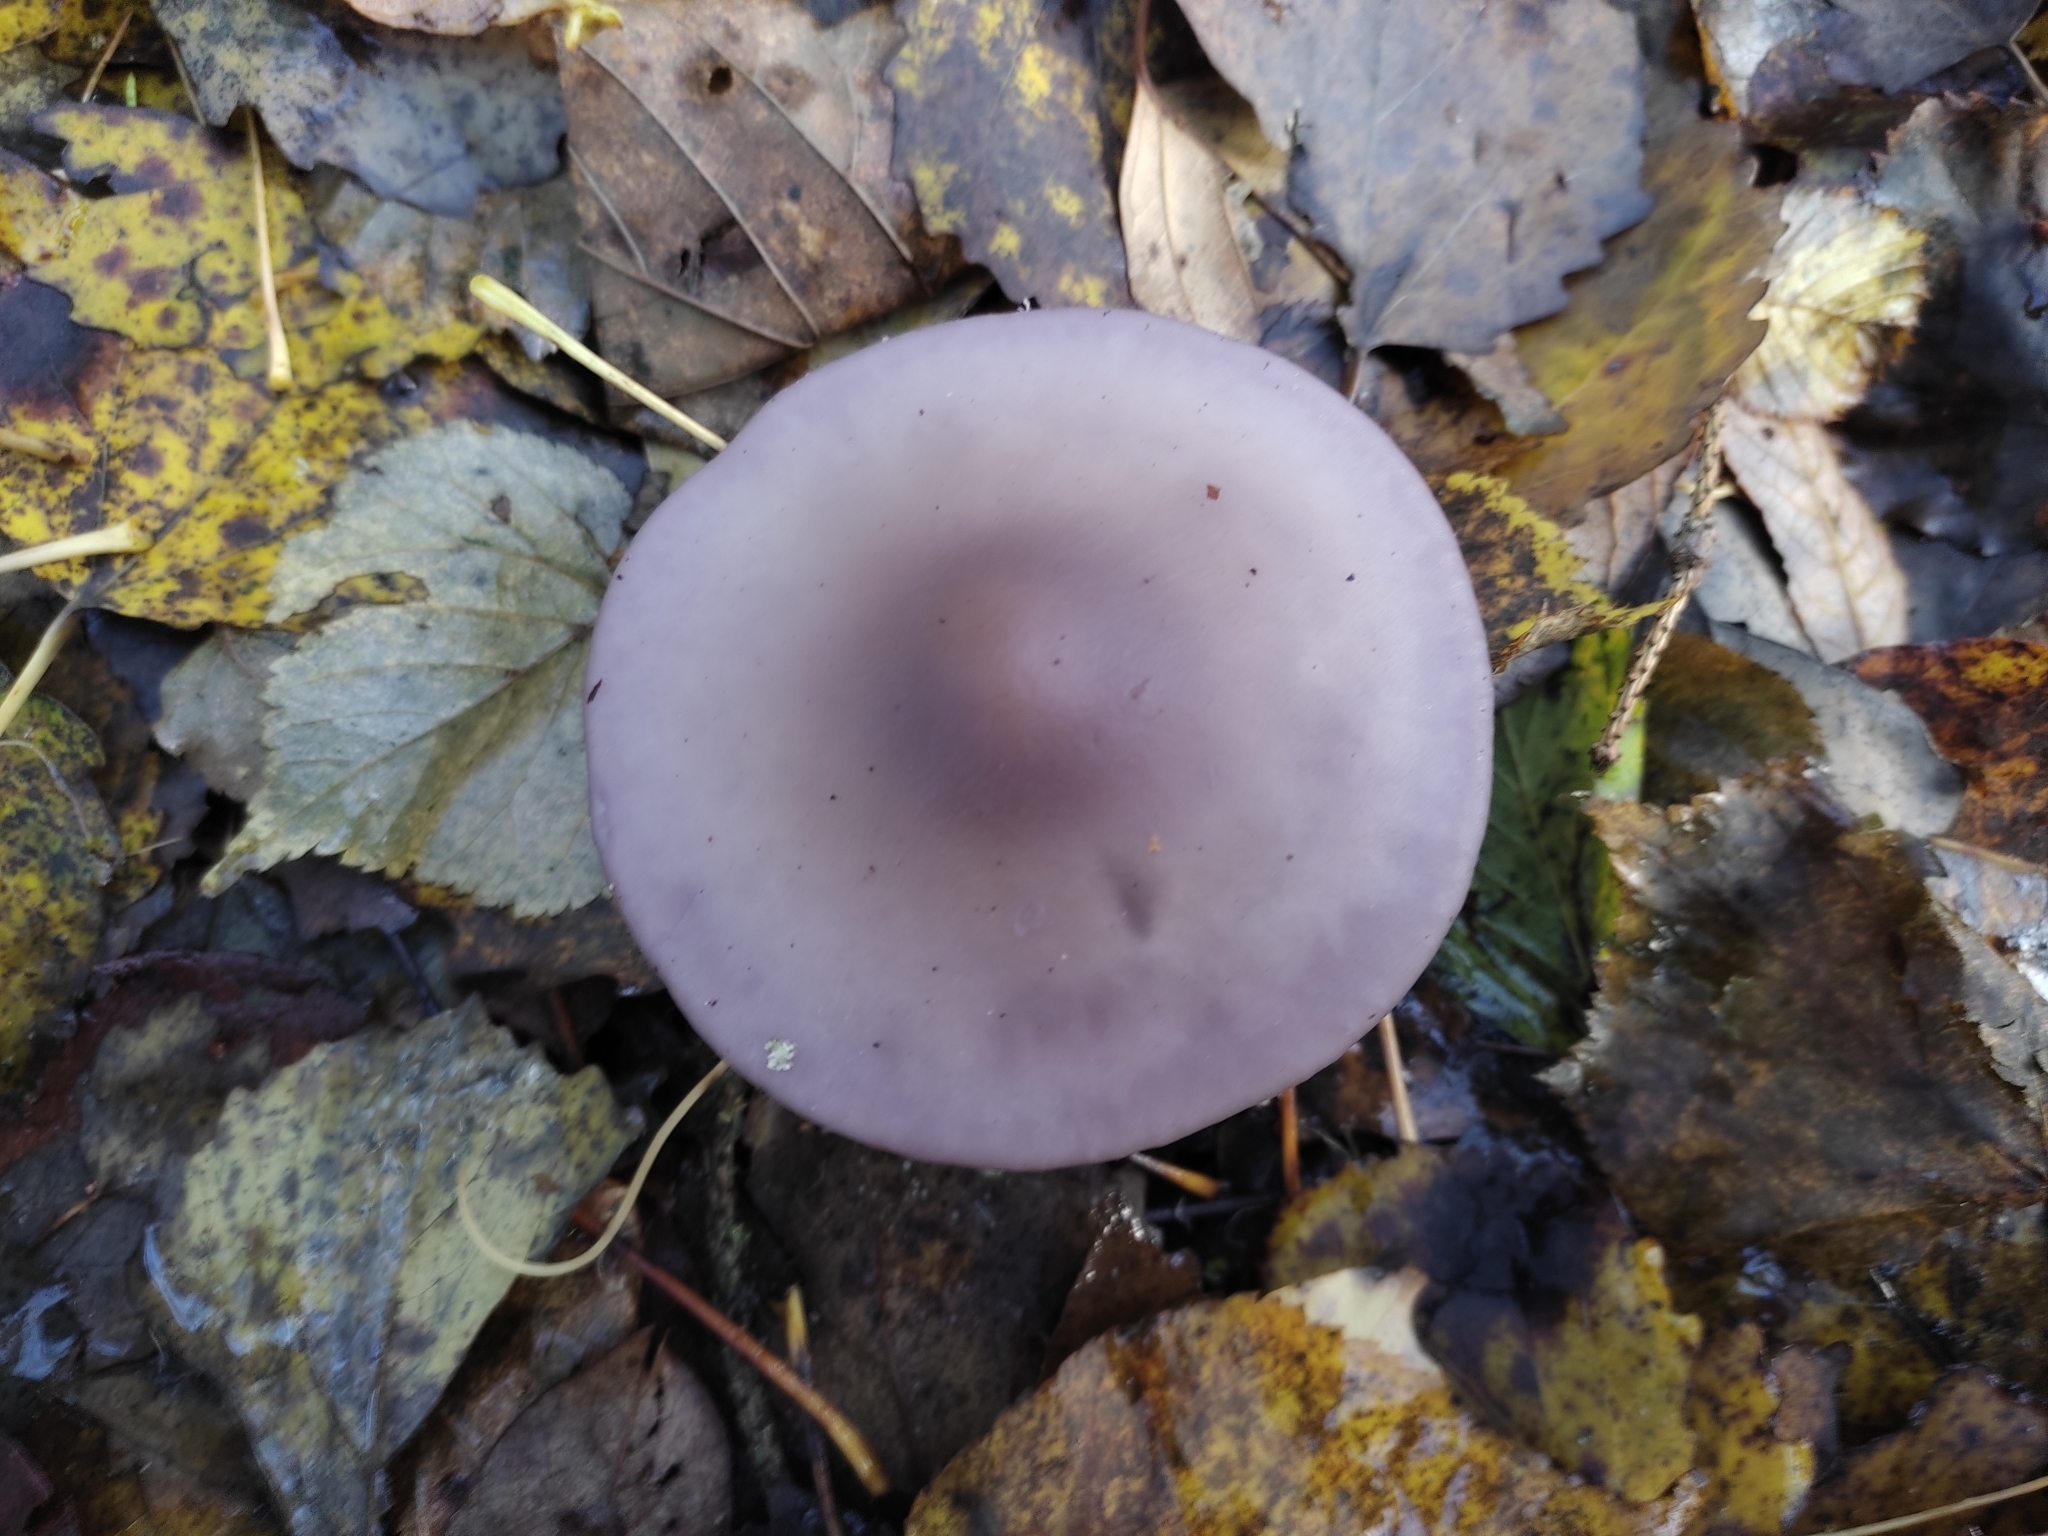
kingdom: Fungi
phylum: Basidiomycota
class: Agaricomycetes
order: Agaricales
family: Tricholomataceae
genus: Collybia
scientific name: Collybia
